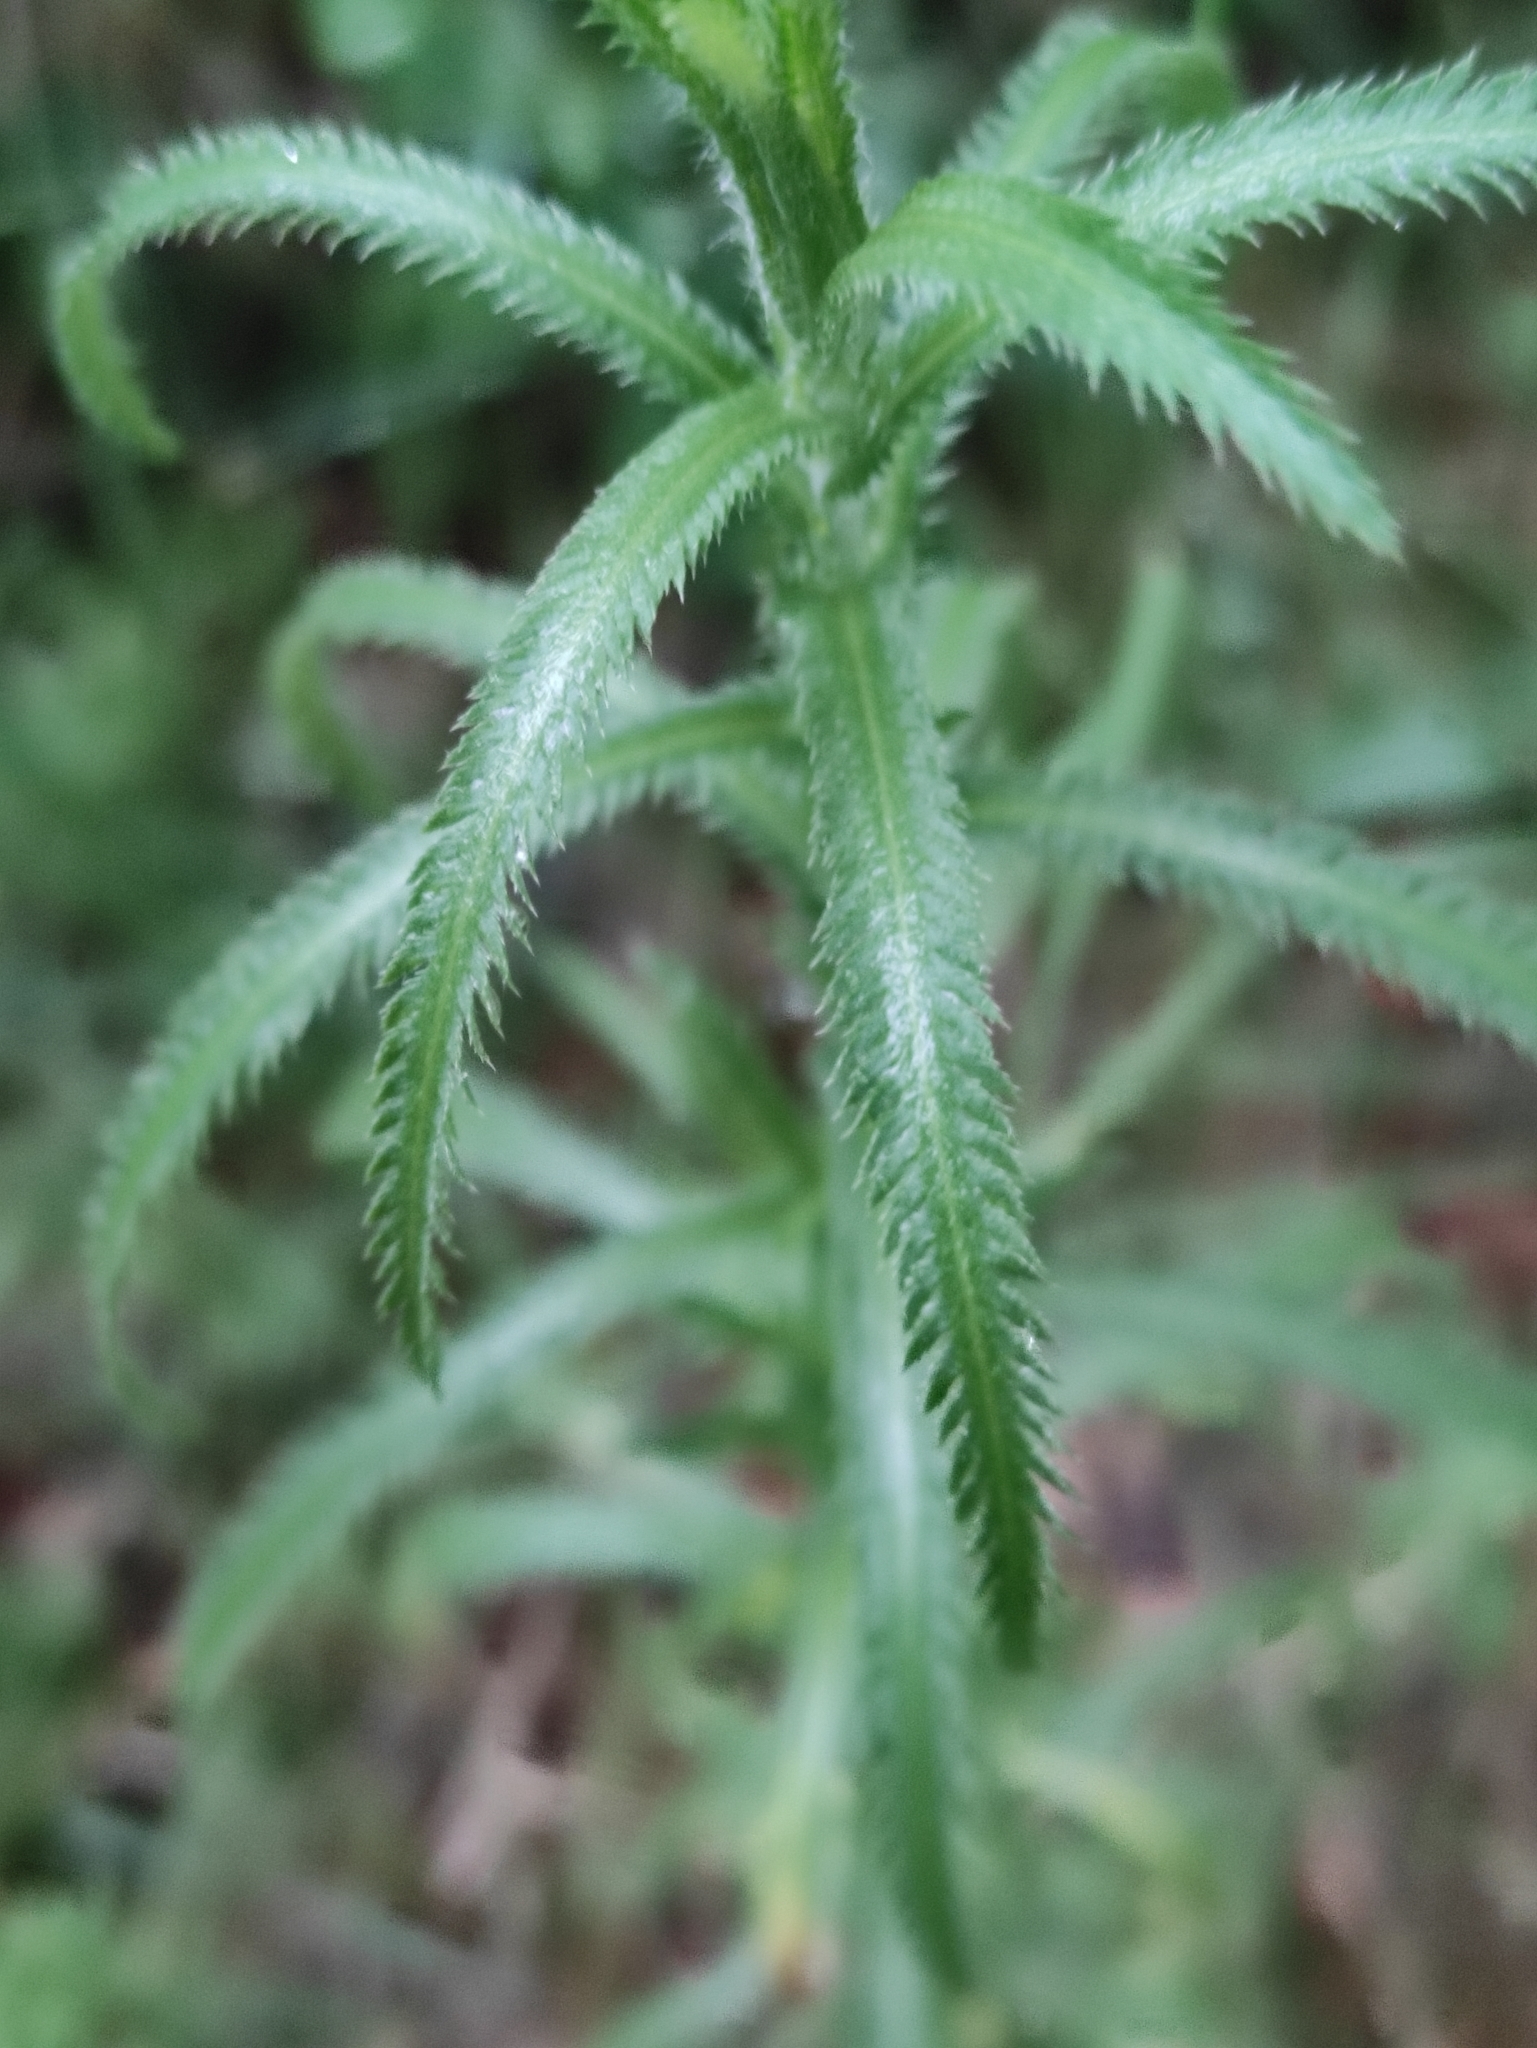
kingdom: Plantae
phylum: Tracheophyta
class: Magnoliopsida
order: Asterales
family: Asteraceae
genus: Achillea
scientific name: Achillea alpina
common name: Siberian yarrow
